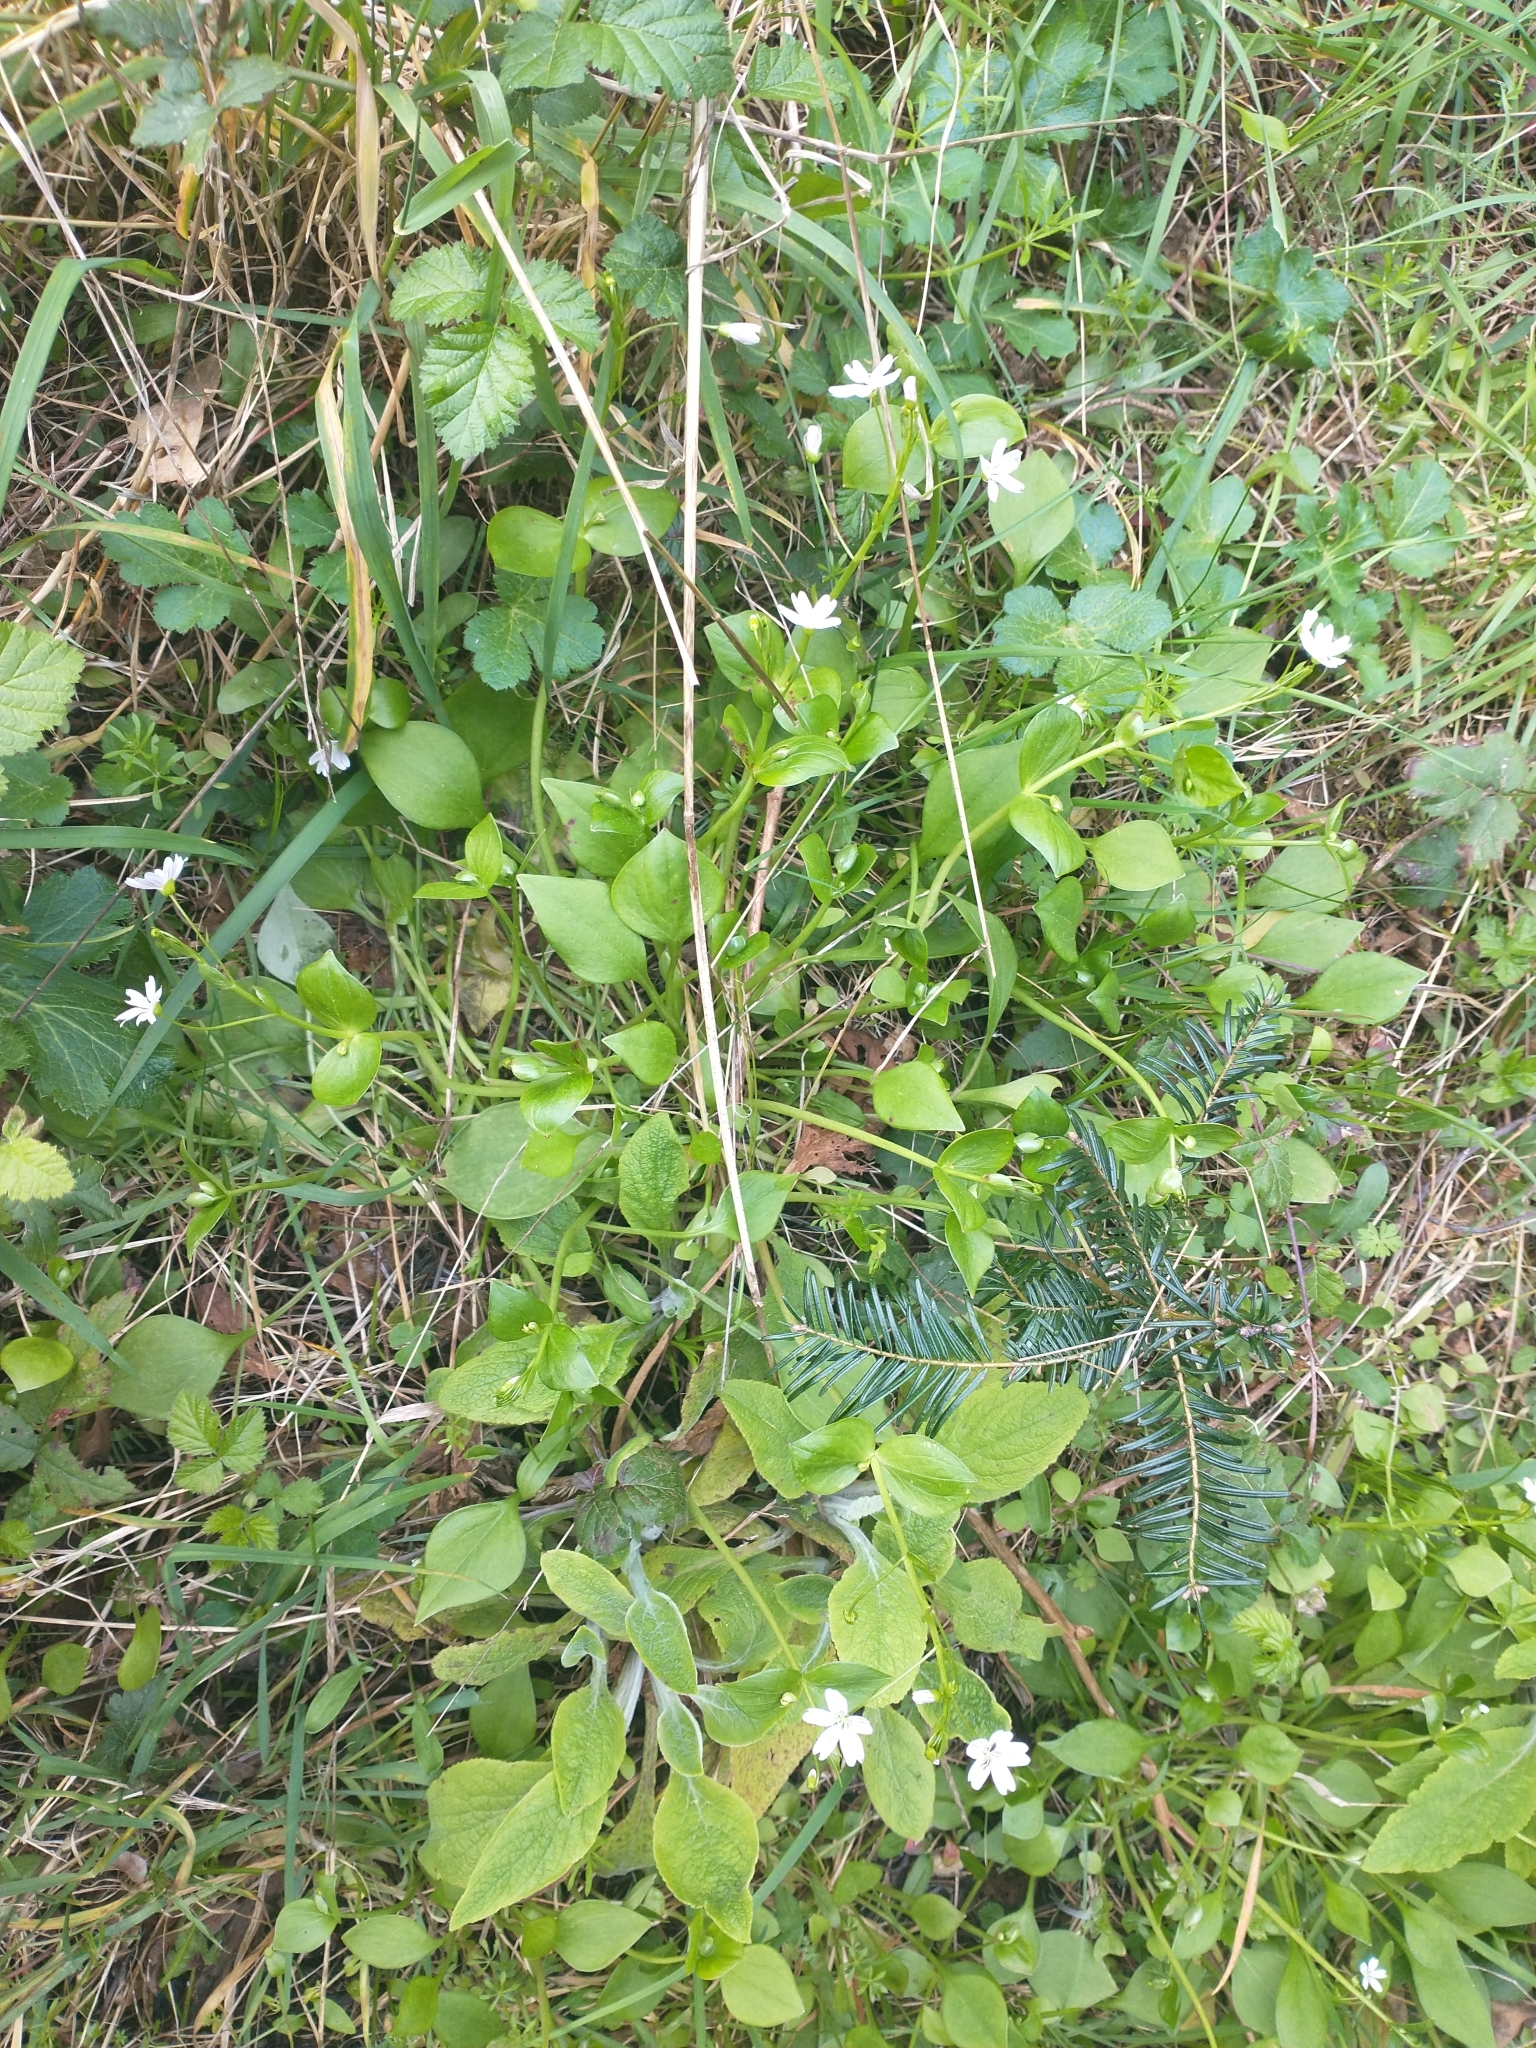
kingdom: Plantae
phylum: Tracheophyta
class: Magnoliopsida
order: Caryophyllales
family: Montiaceae
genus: Claytonia
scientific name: Claytonia sibirica
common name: Pink purslane
